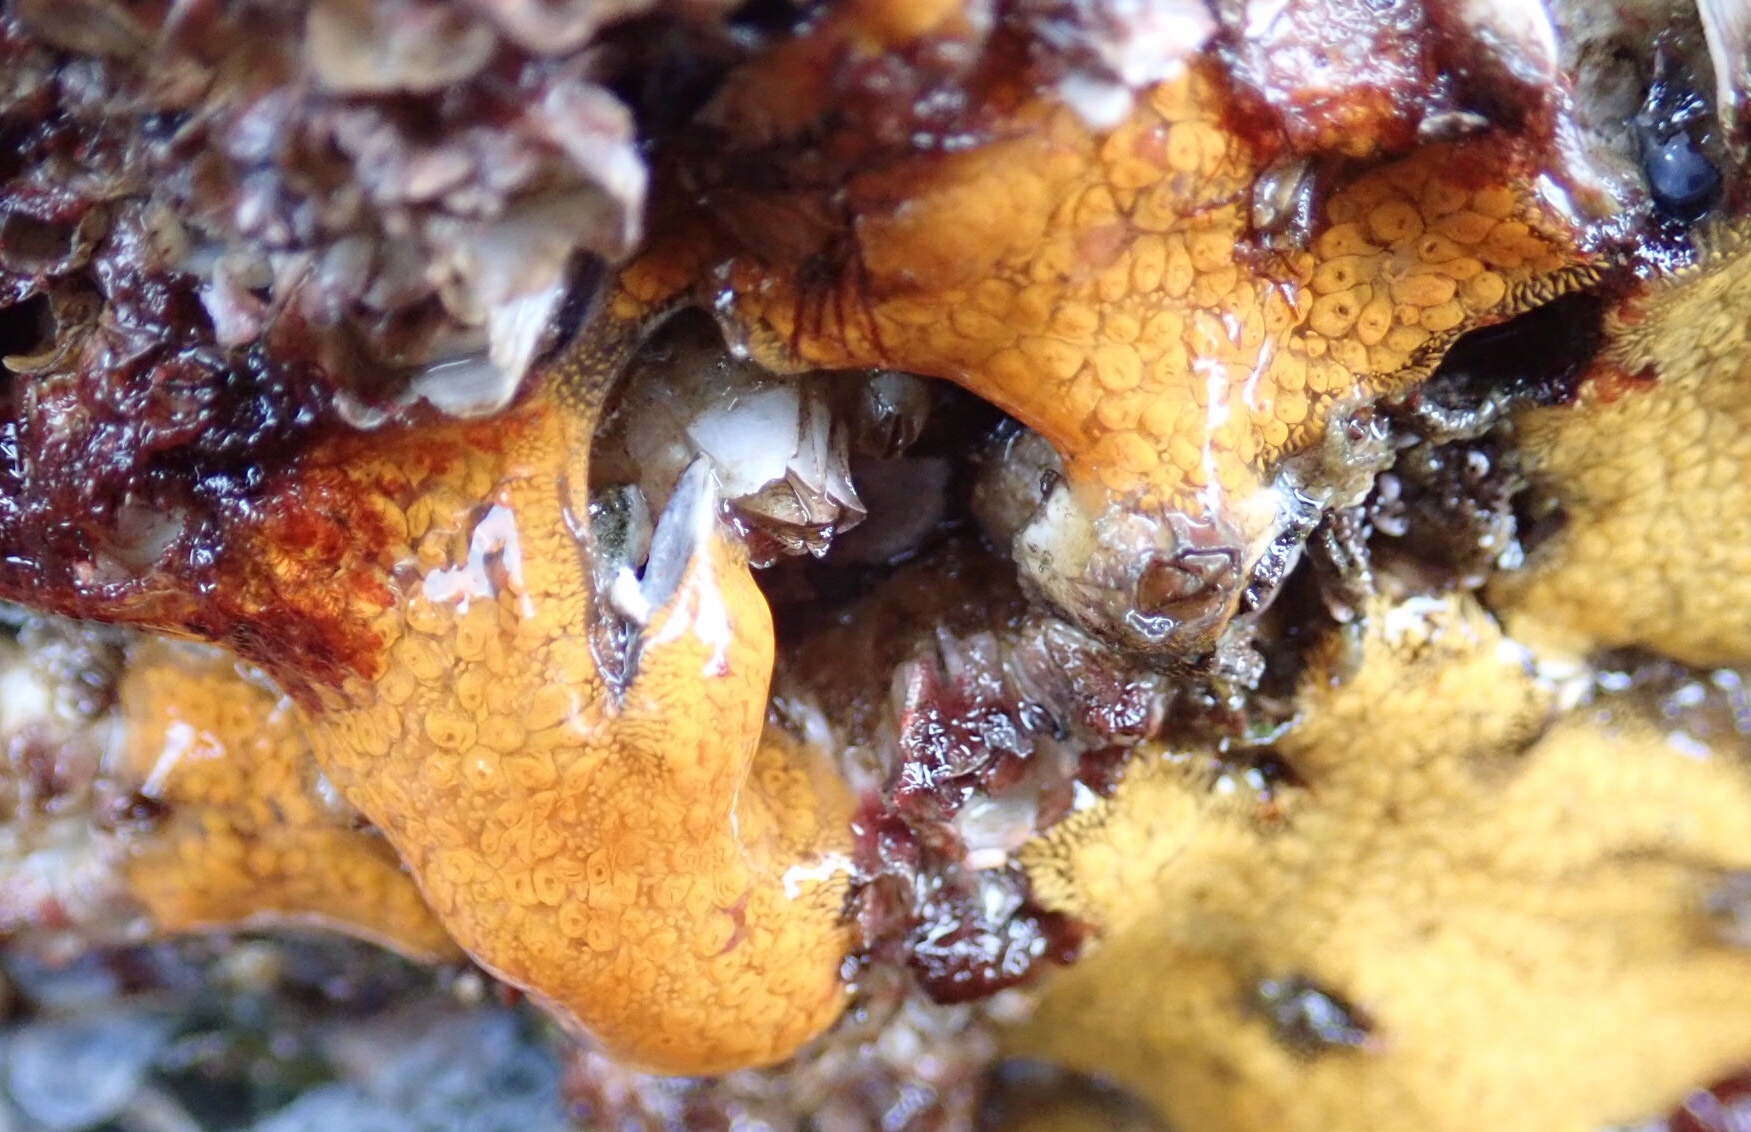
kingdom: Animalia
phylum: Chordata
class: Ascidiacea
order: Stolidobranchia
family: Styelidae
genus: Botrylloides
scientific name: Botrylloides violaceus
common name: Colonial sea squirt
